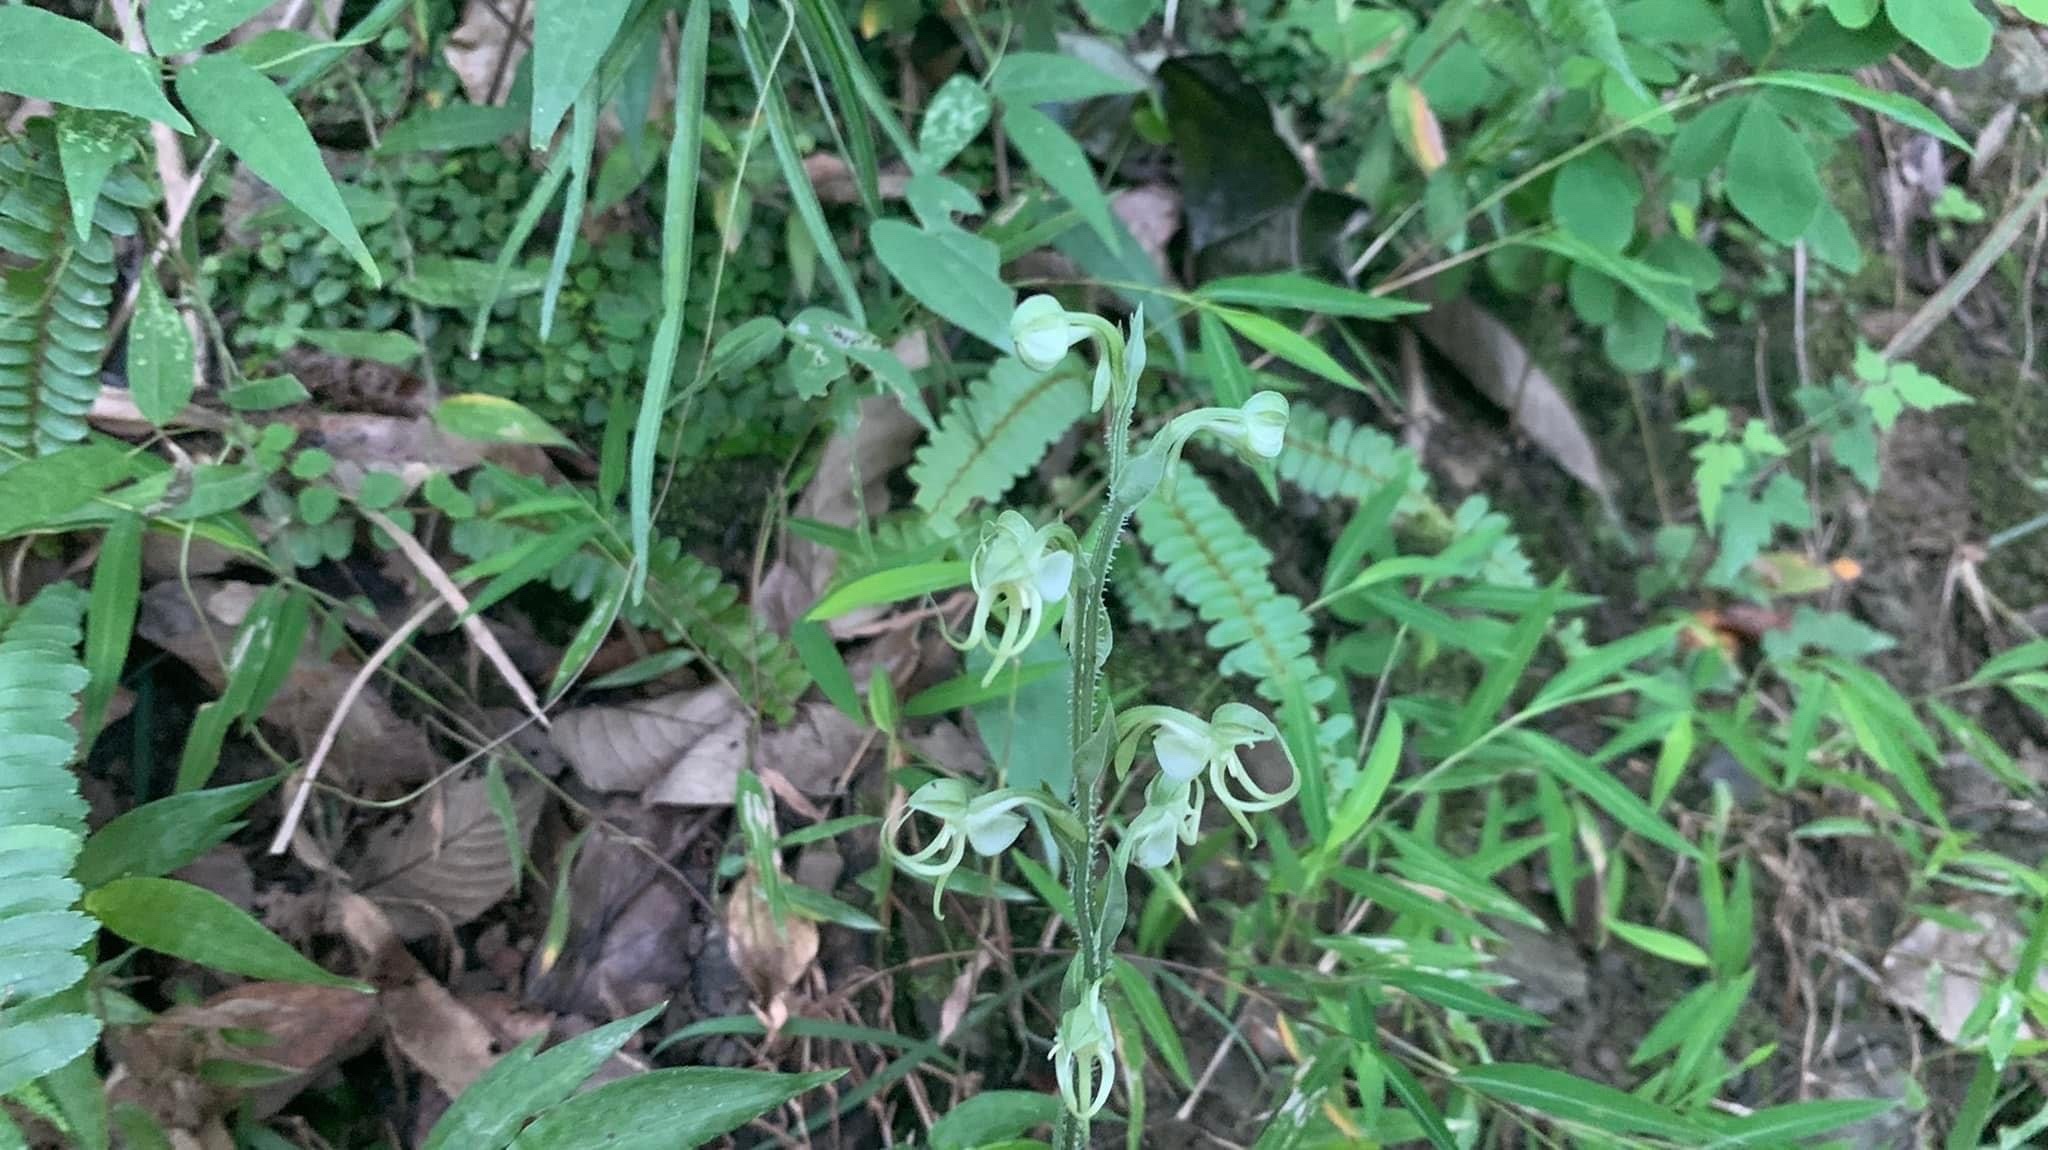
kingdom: Plantae
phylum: Tracheophyta
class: Liliopsida
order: Asparagales
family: Orchidaceae
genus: Habenaria
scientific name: Habenaria ciliolaris
